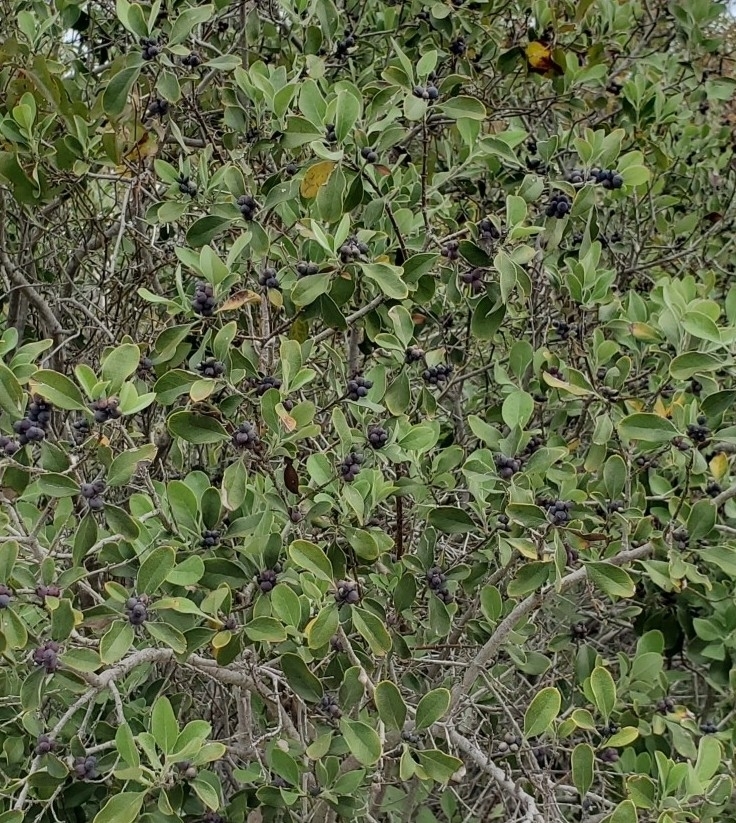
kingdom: Plantae
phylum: Tracheophyta
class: Magnoliopsida
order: Garryales
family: Garryaceae
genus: Garrya
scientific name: Garrya lindheimeri
